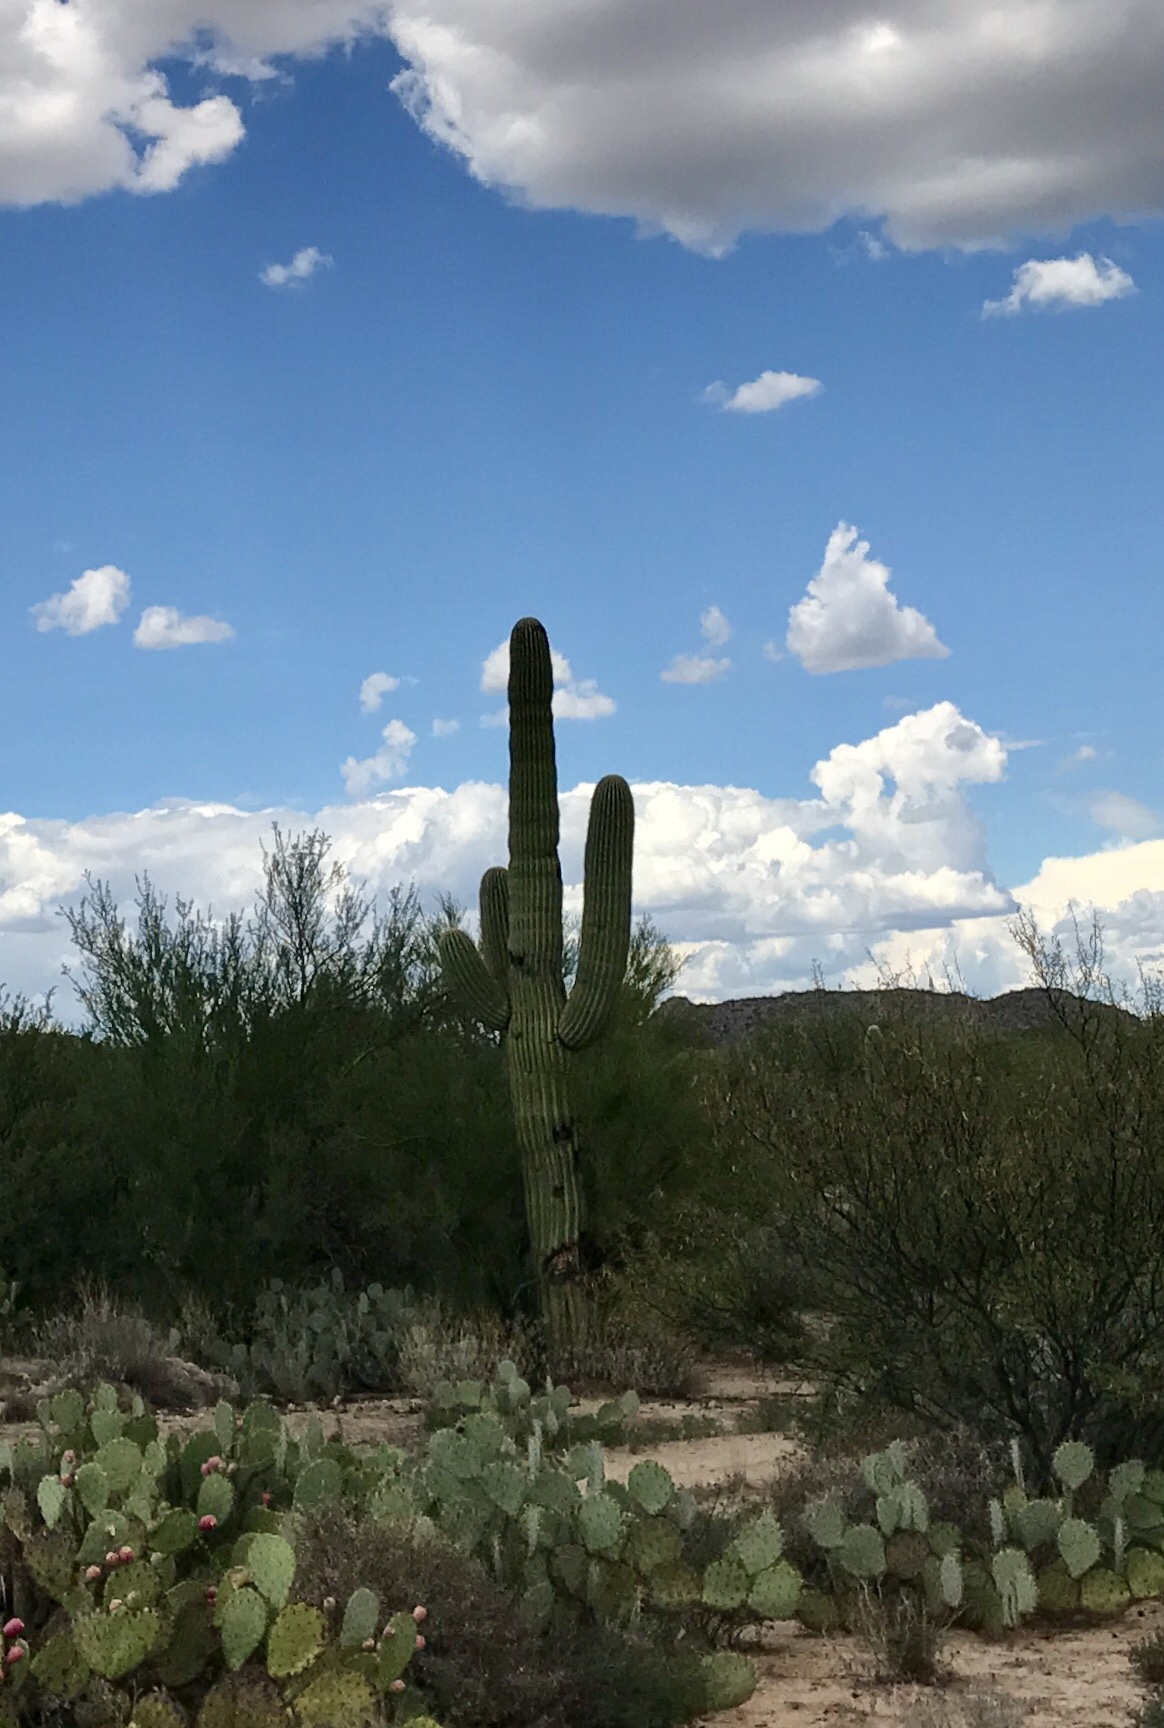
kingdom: Plantae
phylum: Tracheophyta
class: Magnoliopsida
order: Caryophyllales
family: Cactaceae
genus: Carnegiea
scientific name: Carnegiea gigantea
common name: Saguaro
